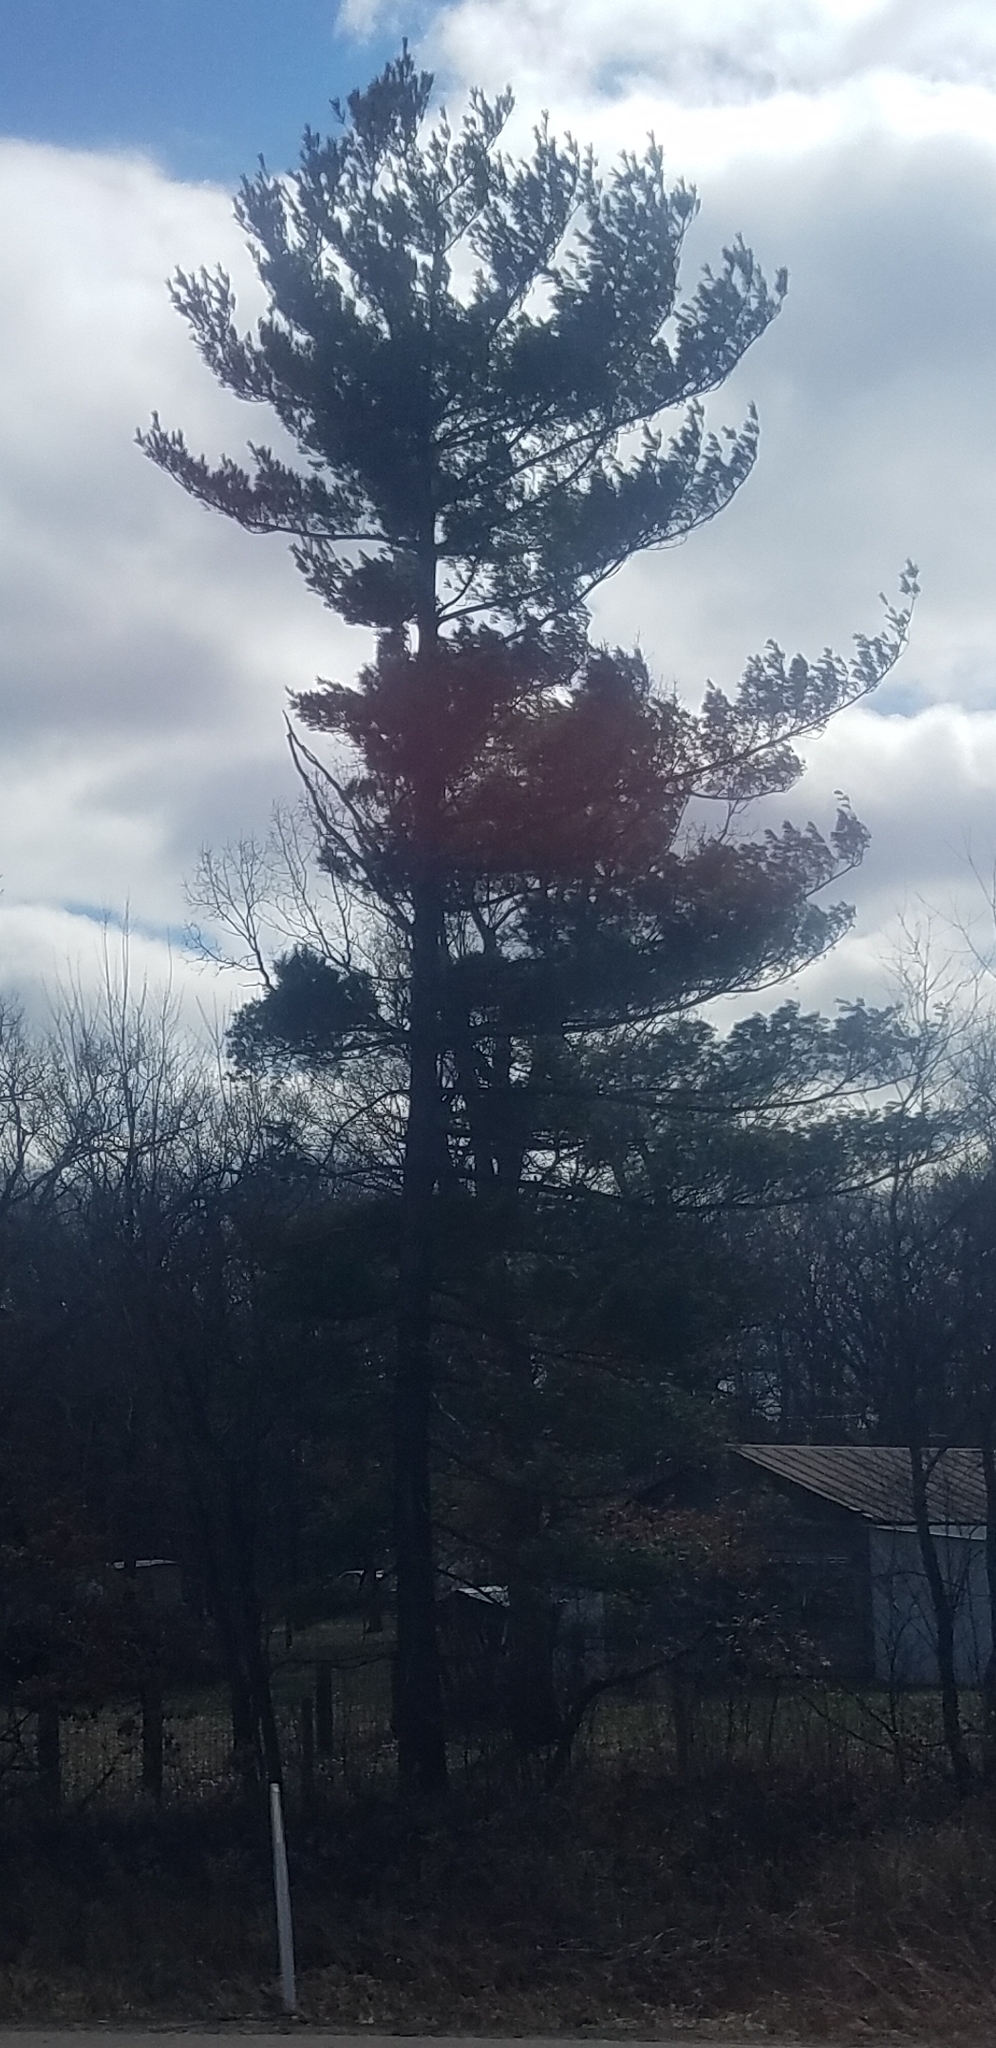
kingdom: Plantae
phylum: Tracheophyta
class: Pinopsida
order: Pinales
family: Pinaceae
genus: Pinus
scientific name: Pinus strobus
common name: Weymouth pine
